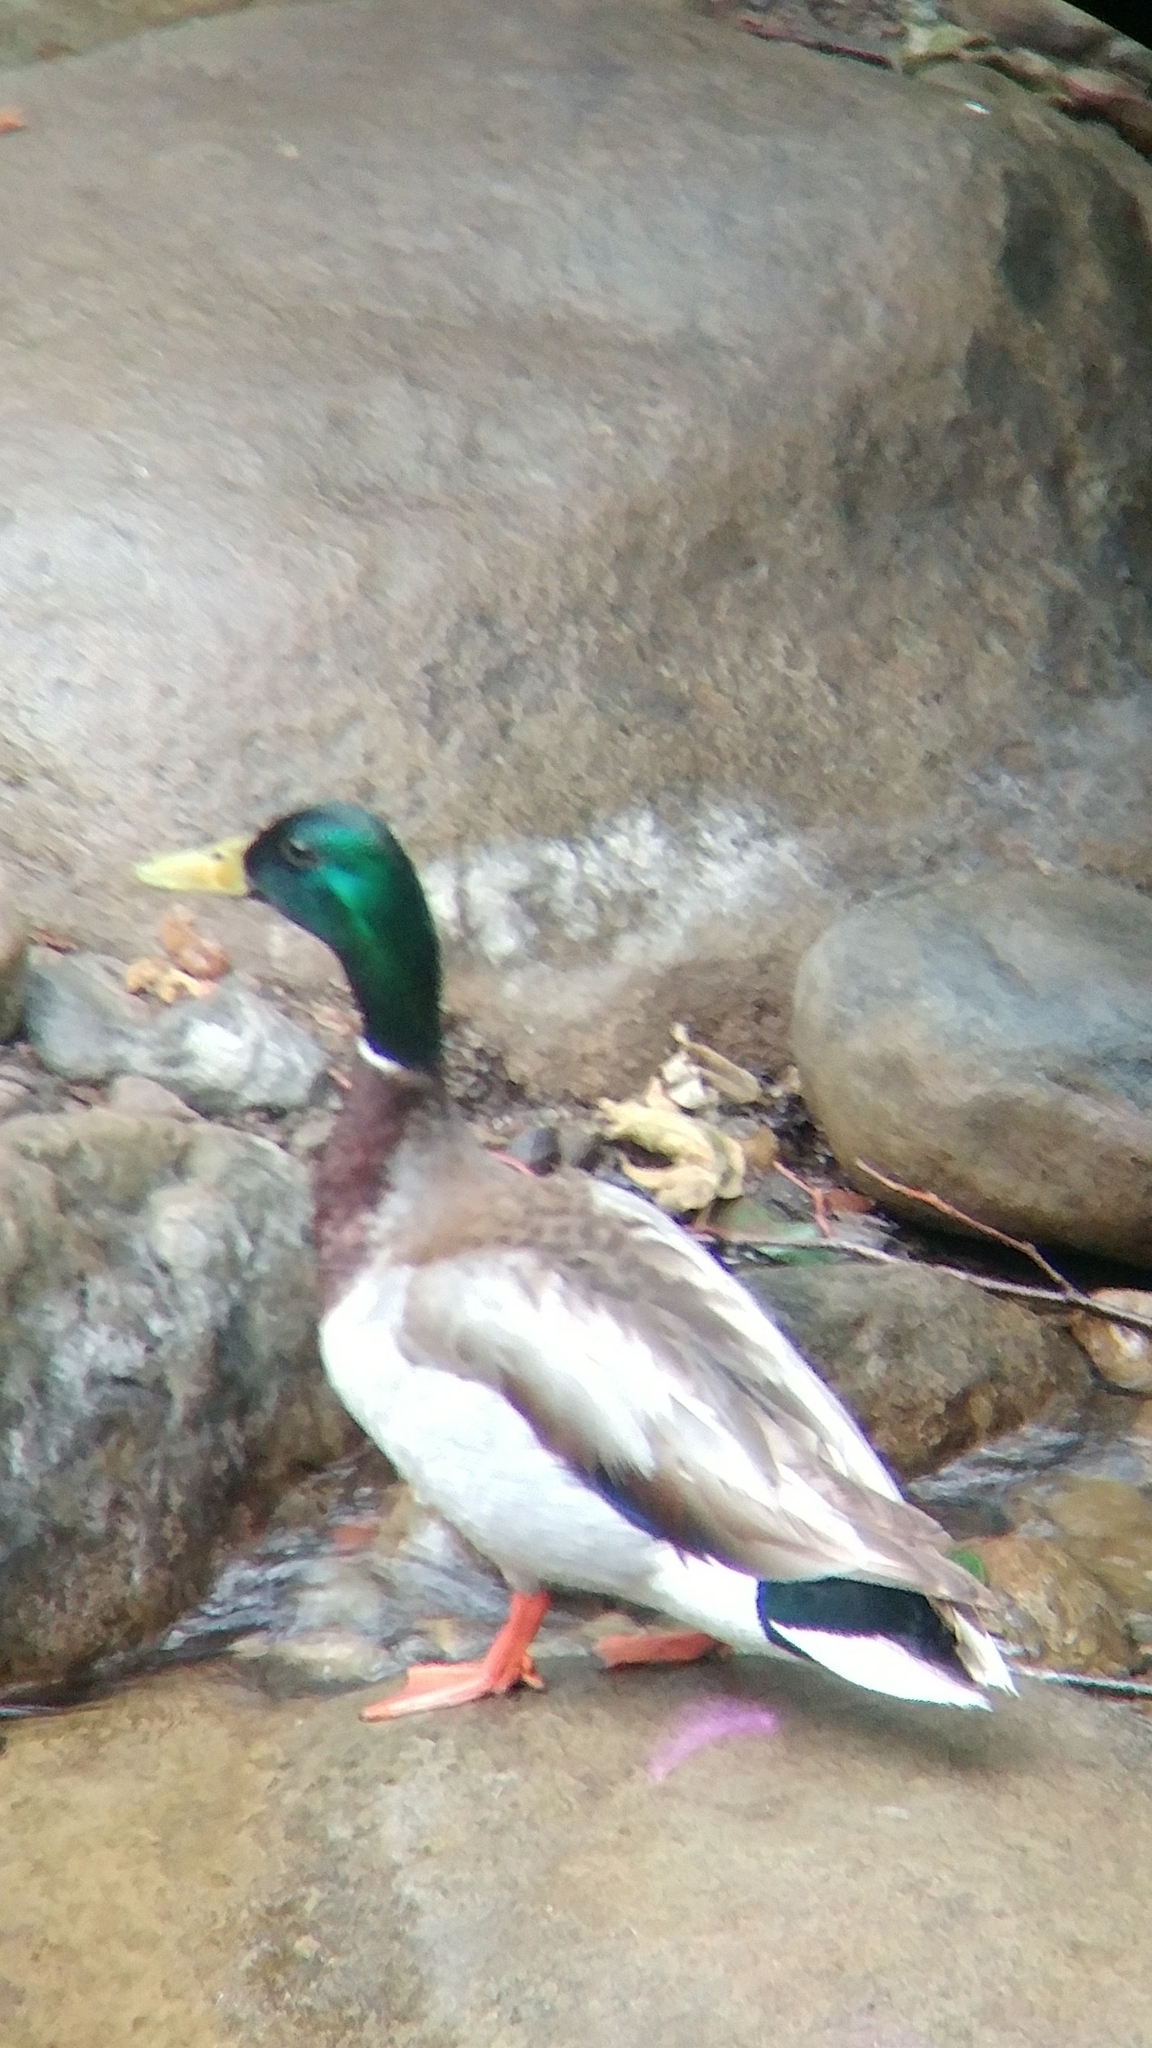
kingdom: Animalia
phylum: Chordata
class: Aves
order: Anseriformes
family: Anatidae
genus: Anas
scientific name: Anas platyrhynchos
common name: Mallard
